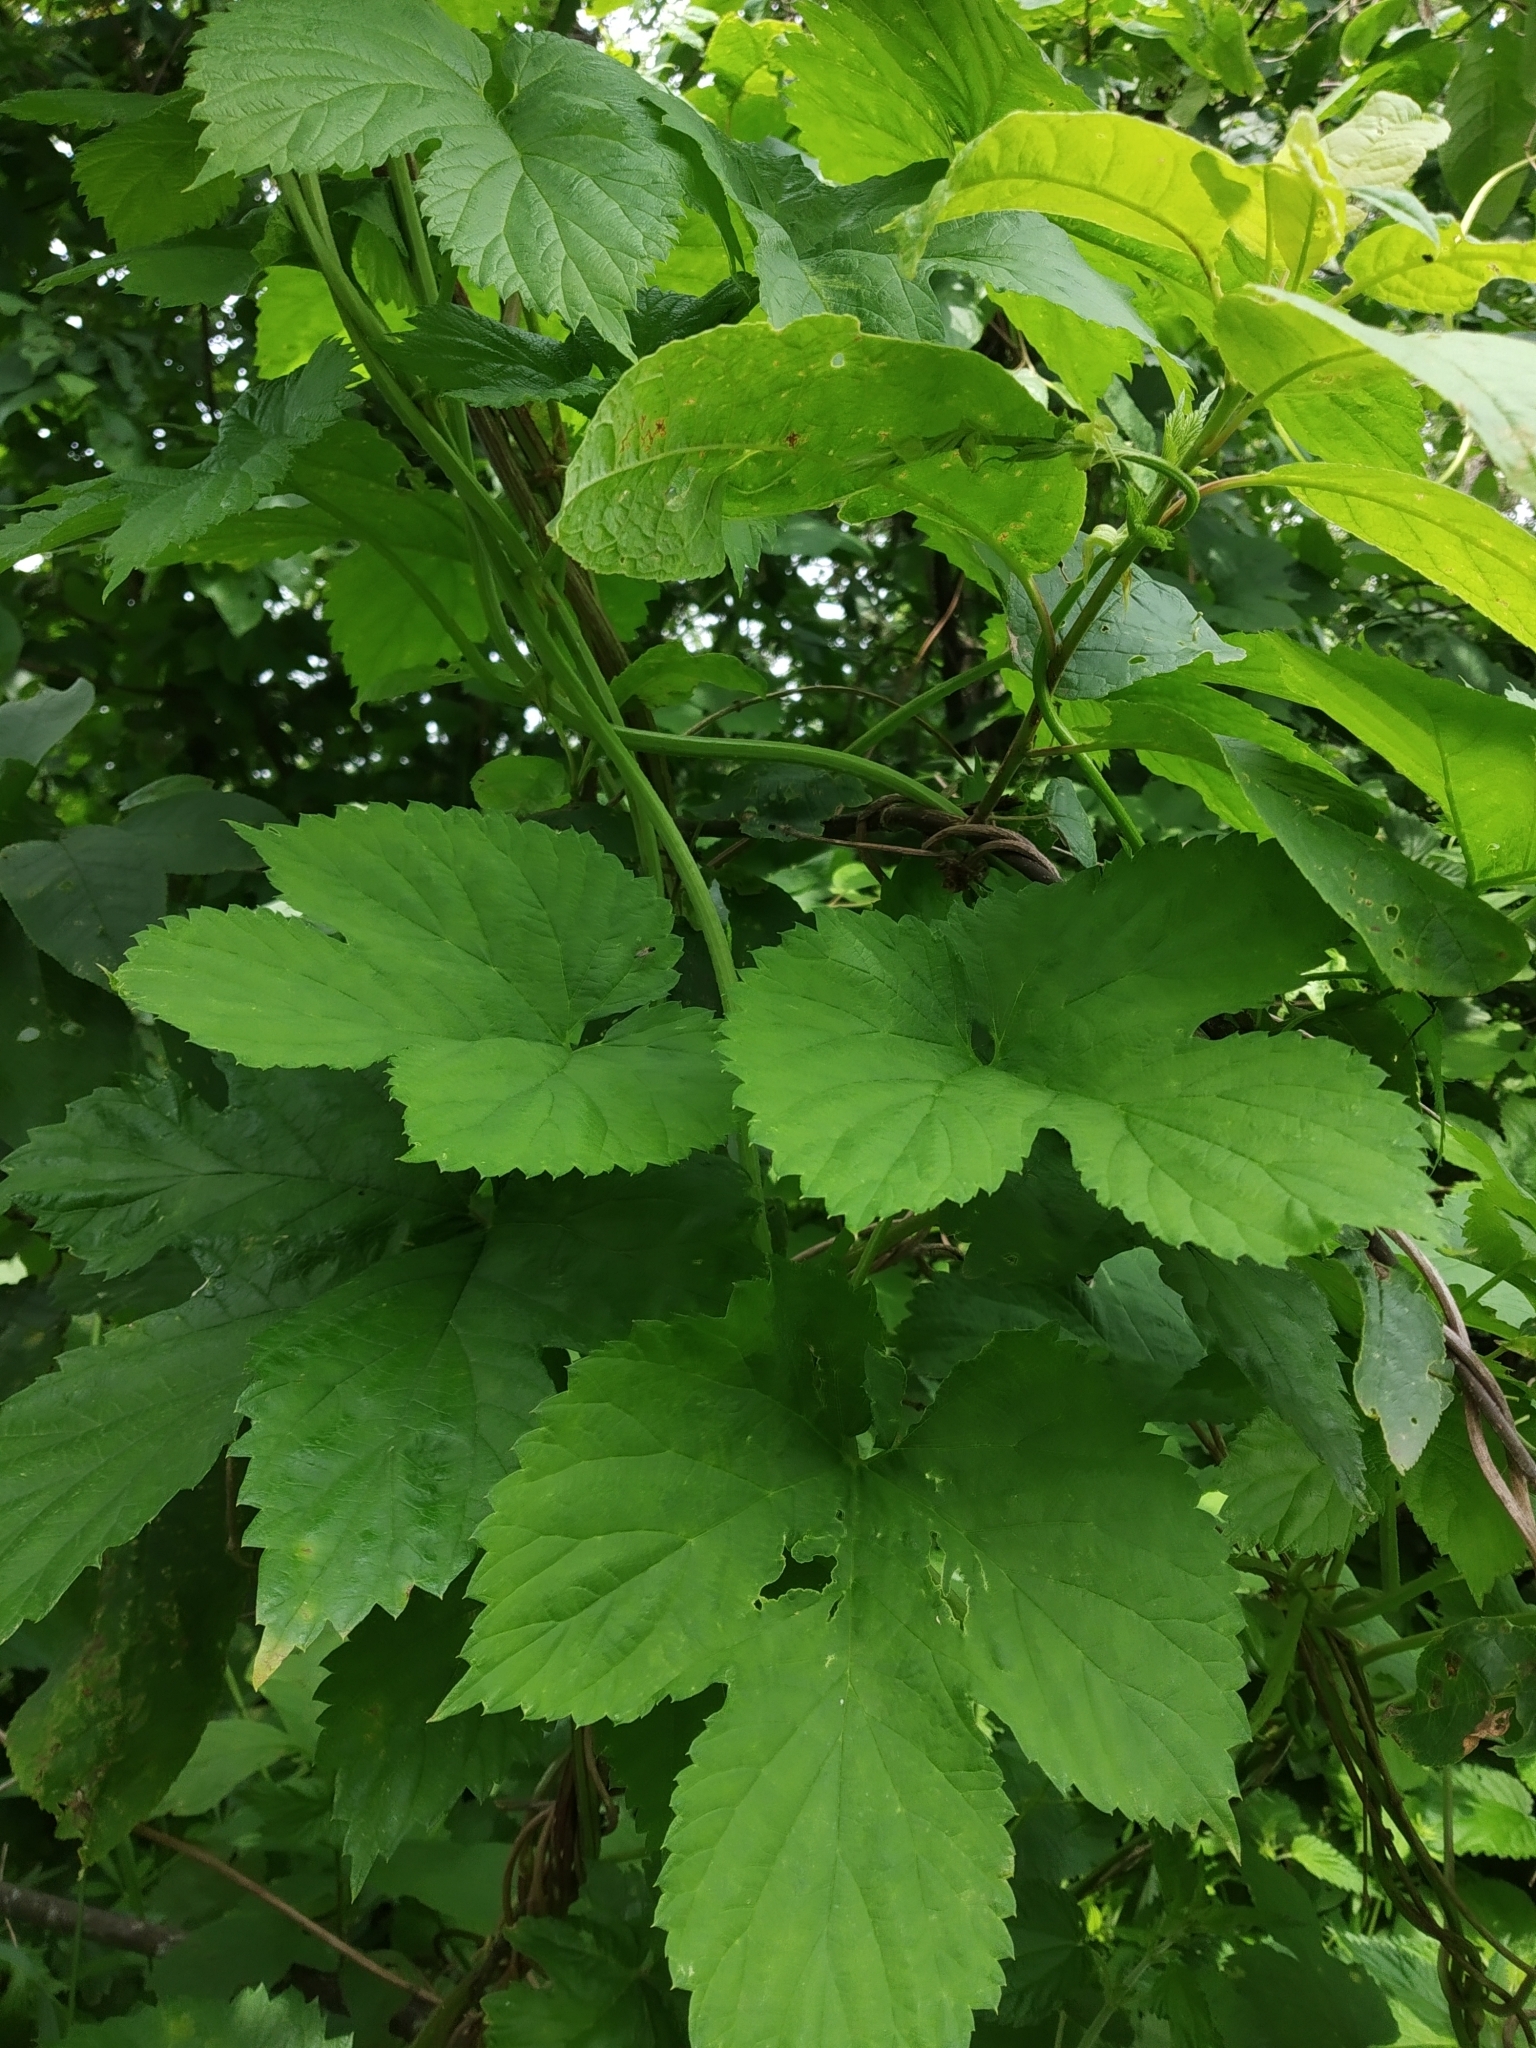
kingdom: Plantae
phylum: Tracheophyta
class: Magnoliopsida
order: Rosales
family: Cannabaceae
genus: Humulus
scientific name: Humulus lupulus
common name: Hop
